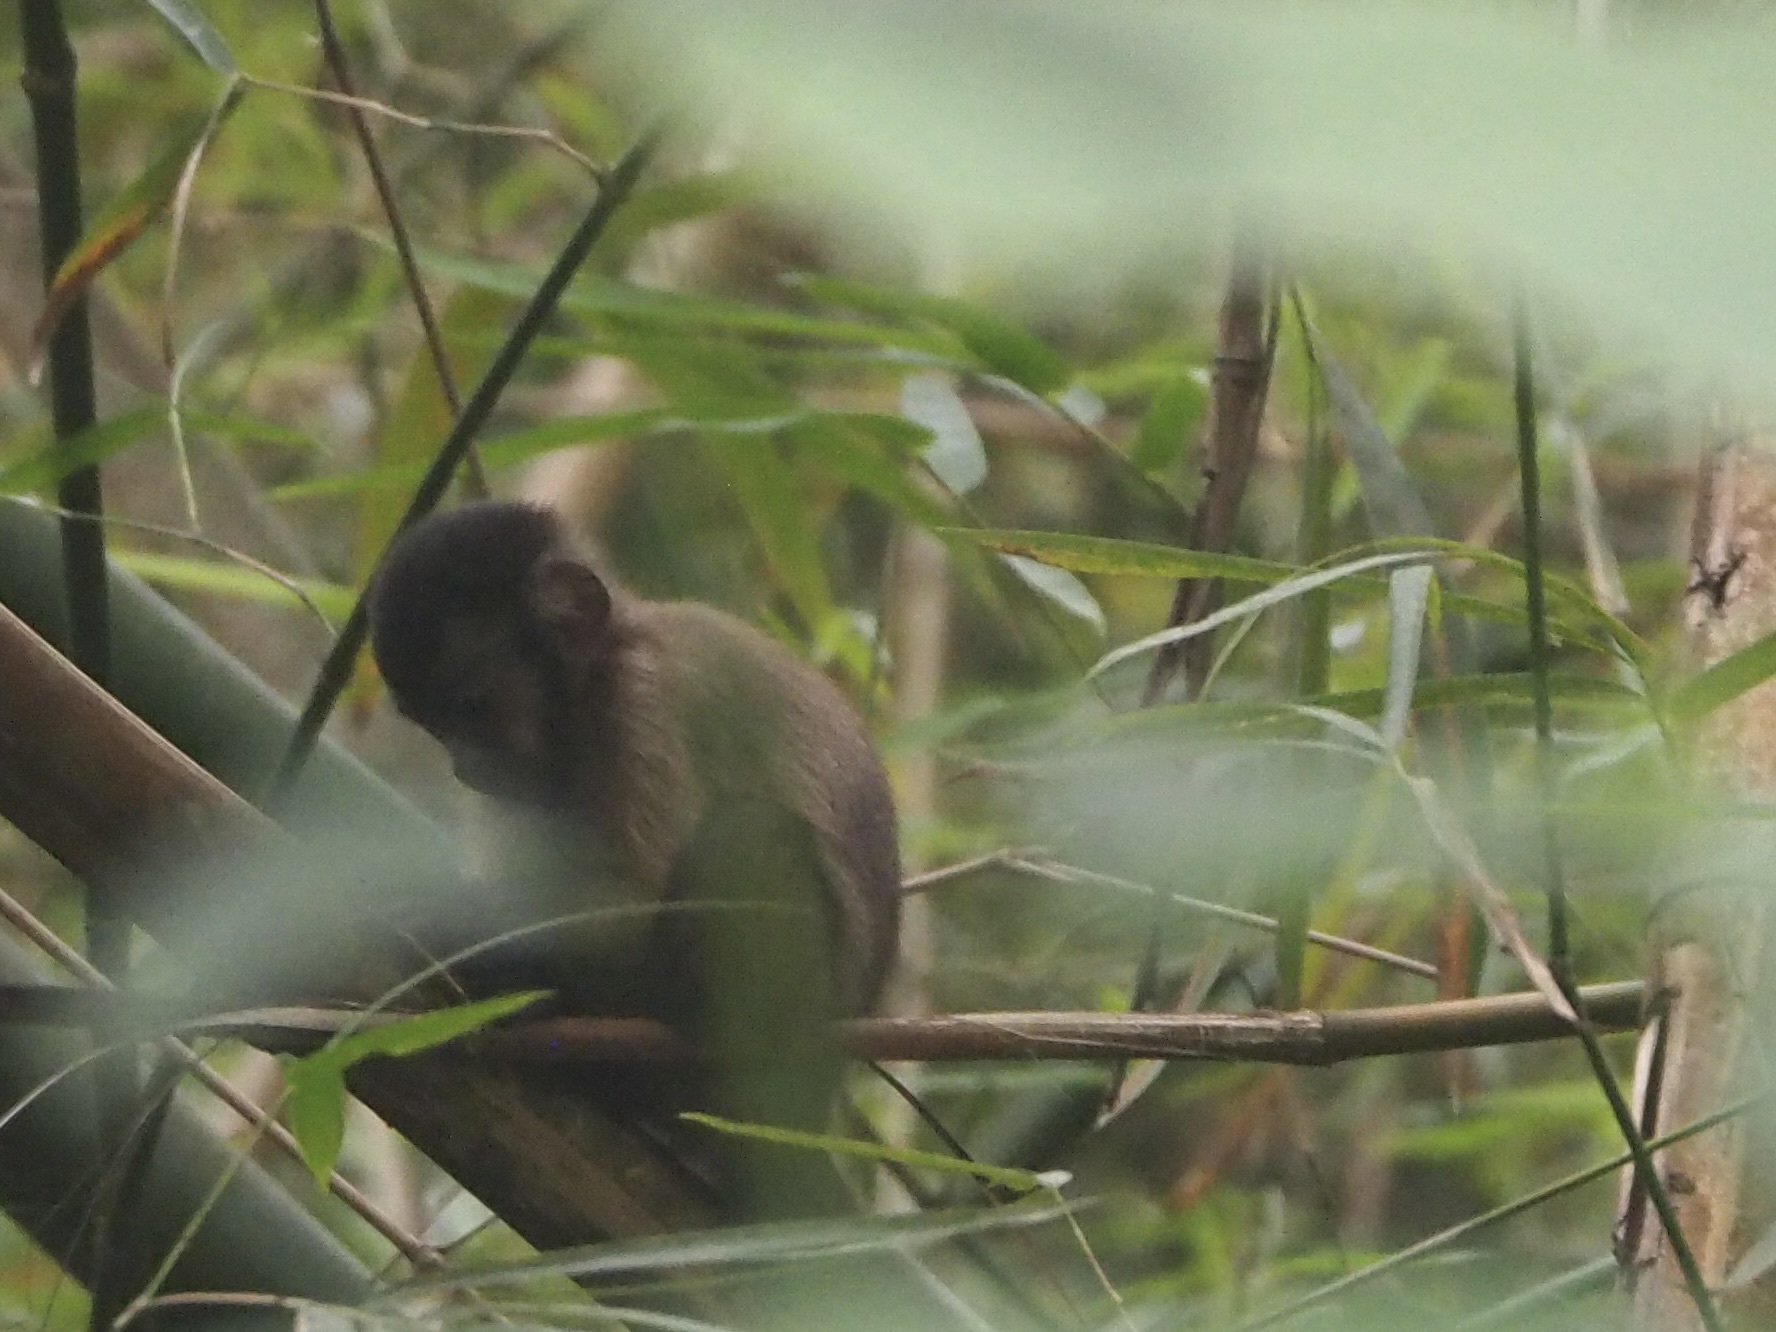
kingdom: Animalia
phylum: Chordata
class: Mammalia
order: Primates
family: Cebidae
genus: Sapajus
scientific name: Sapajus apella
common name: Tufted capuchin
